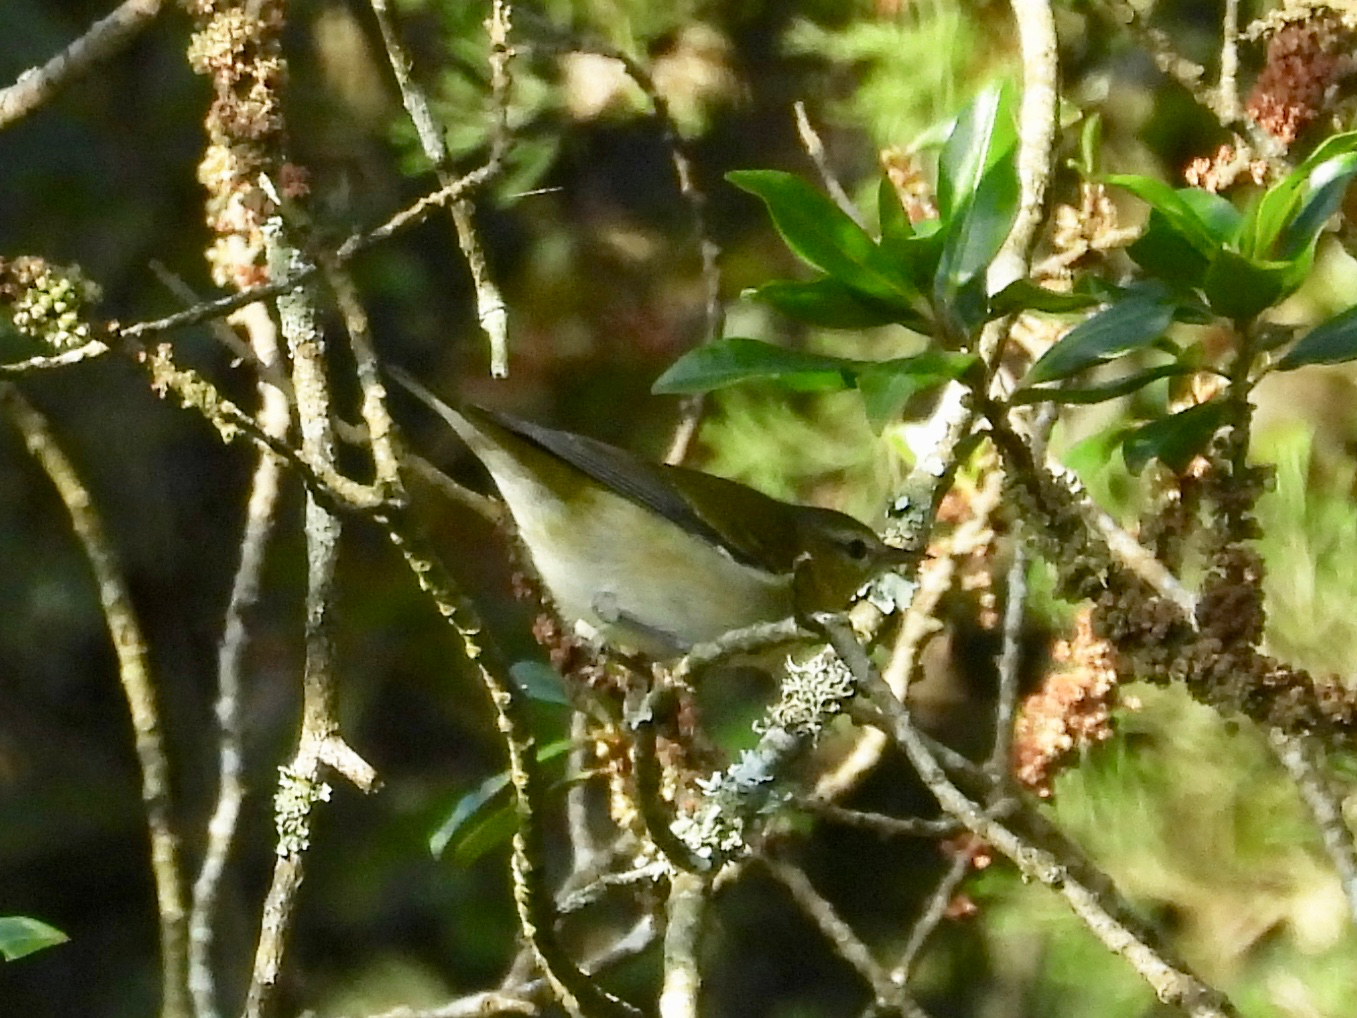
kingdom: Animalia
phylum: Chordata
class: Aves
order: Passeriformes
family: Parulidae
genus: Leiothlypis
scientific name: Leiothlypis peregrina
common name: Tennessee warbler
